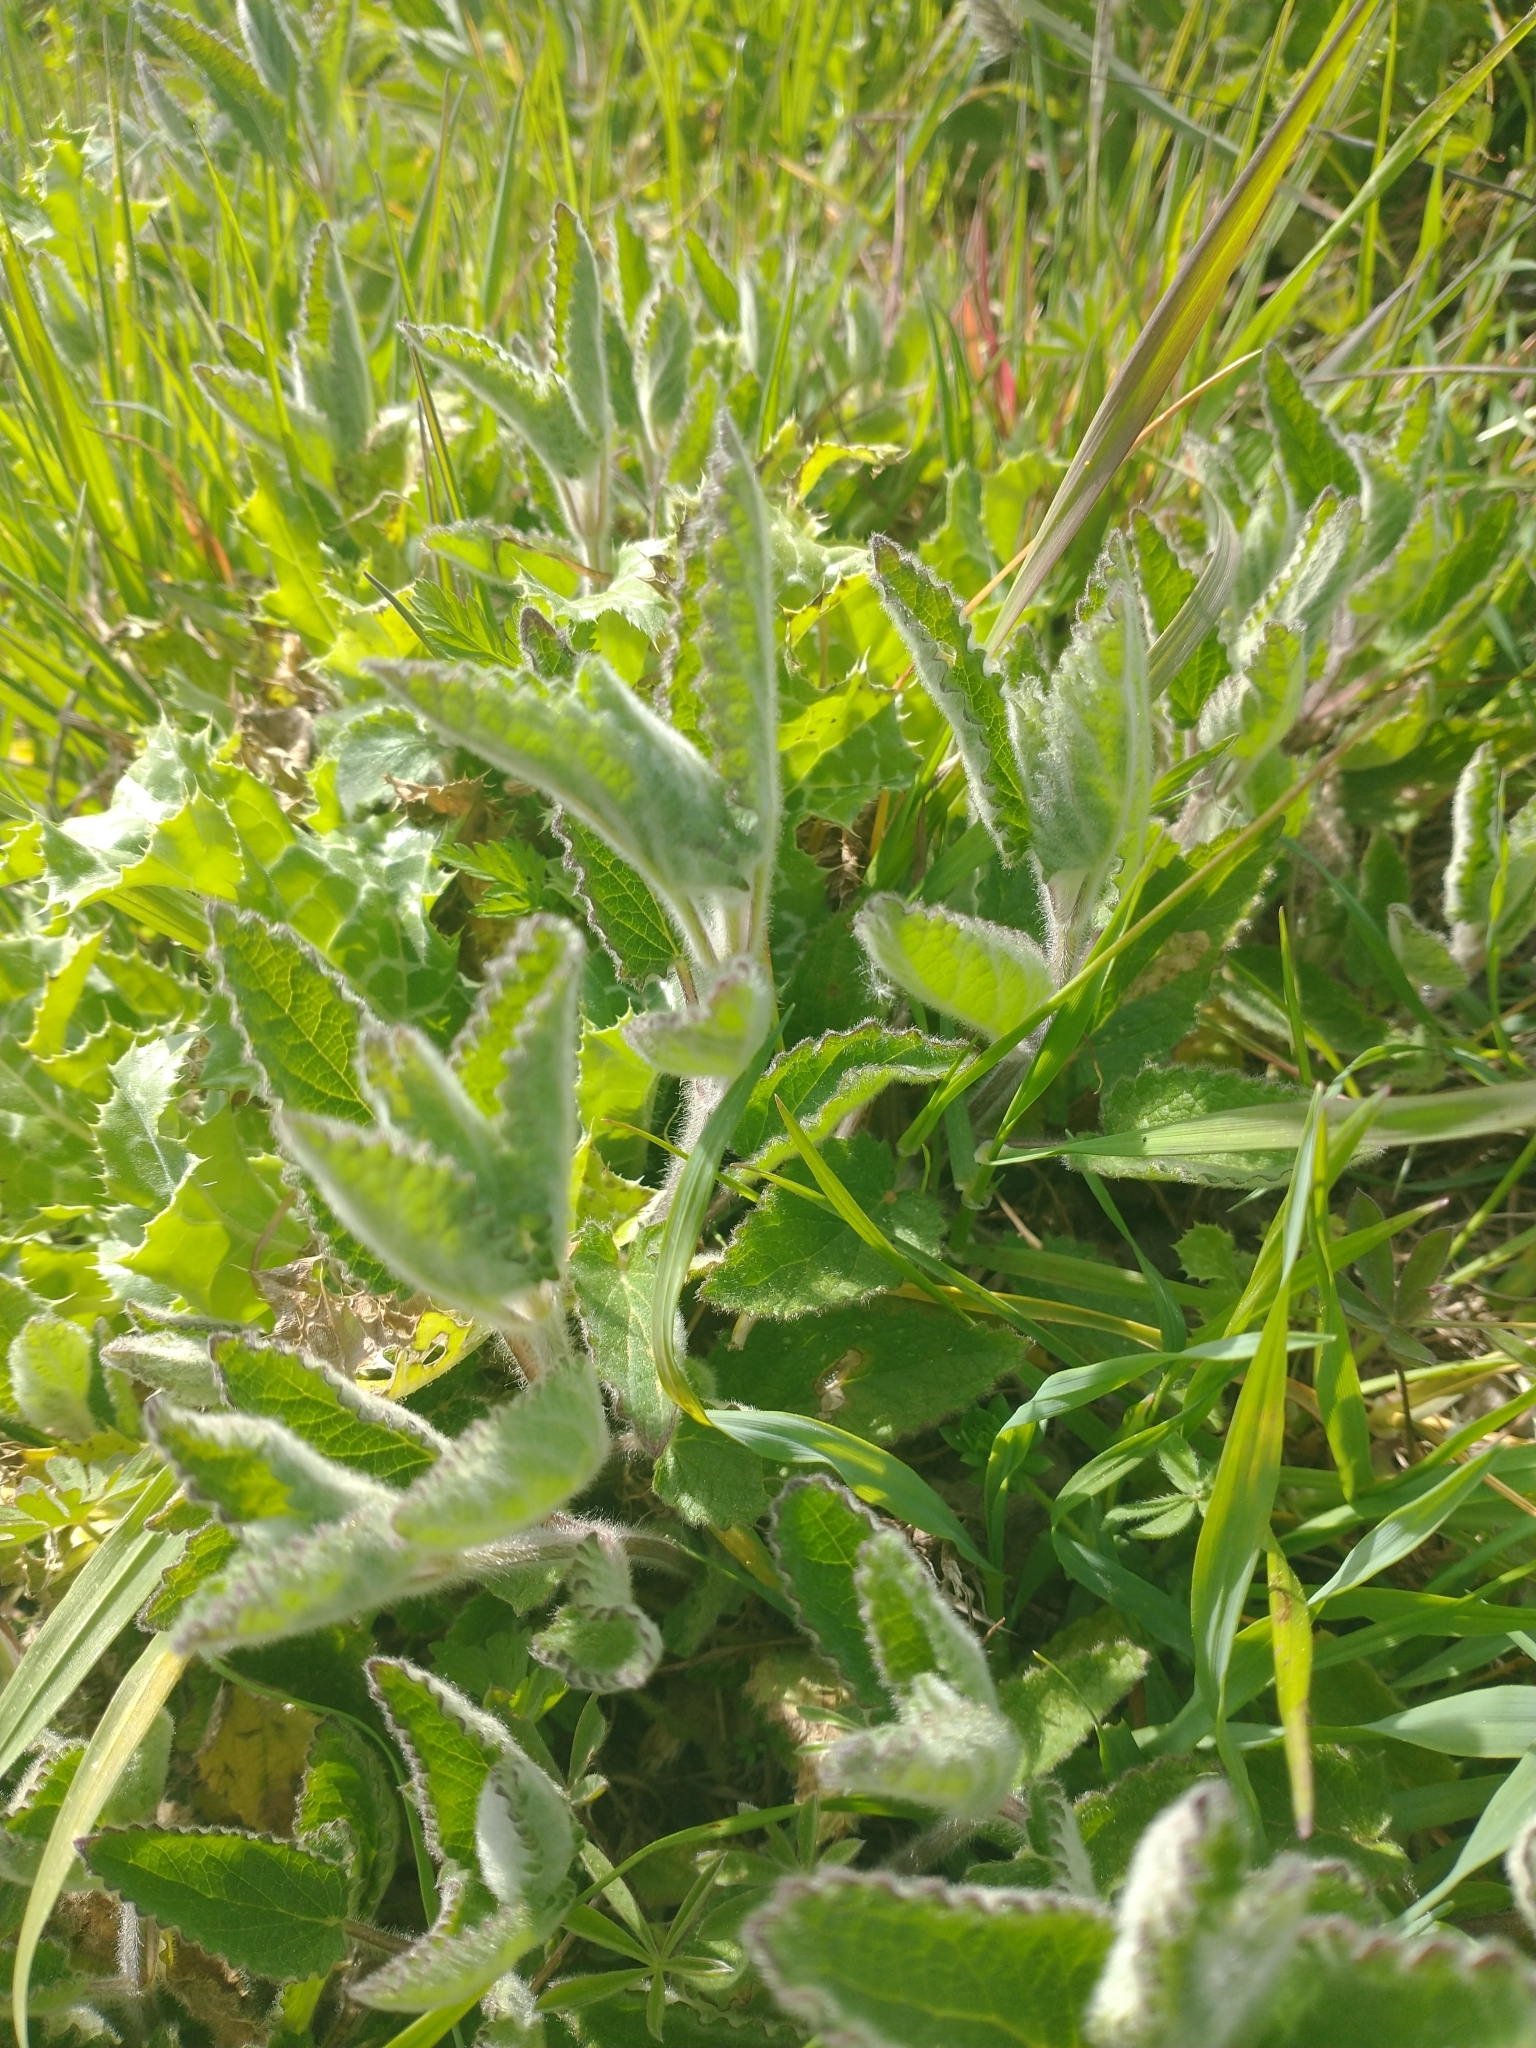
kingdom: Plantae
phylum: Tracheophyta
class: Magnoliopsida
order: Lamiales
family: Lamiaceae
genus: Stachys
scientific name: Stachys rigida
